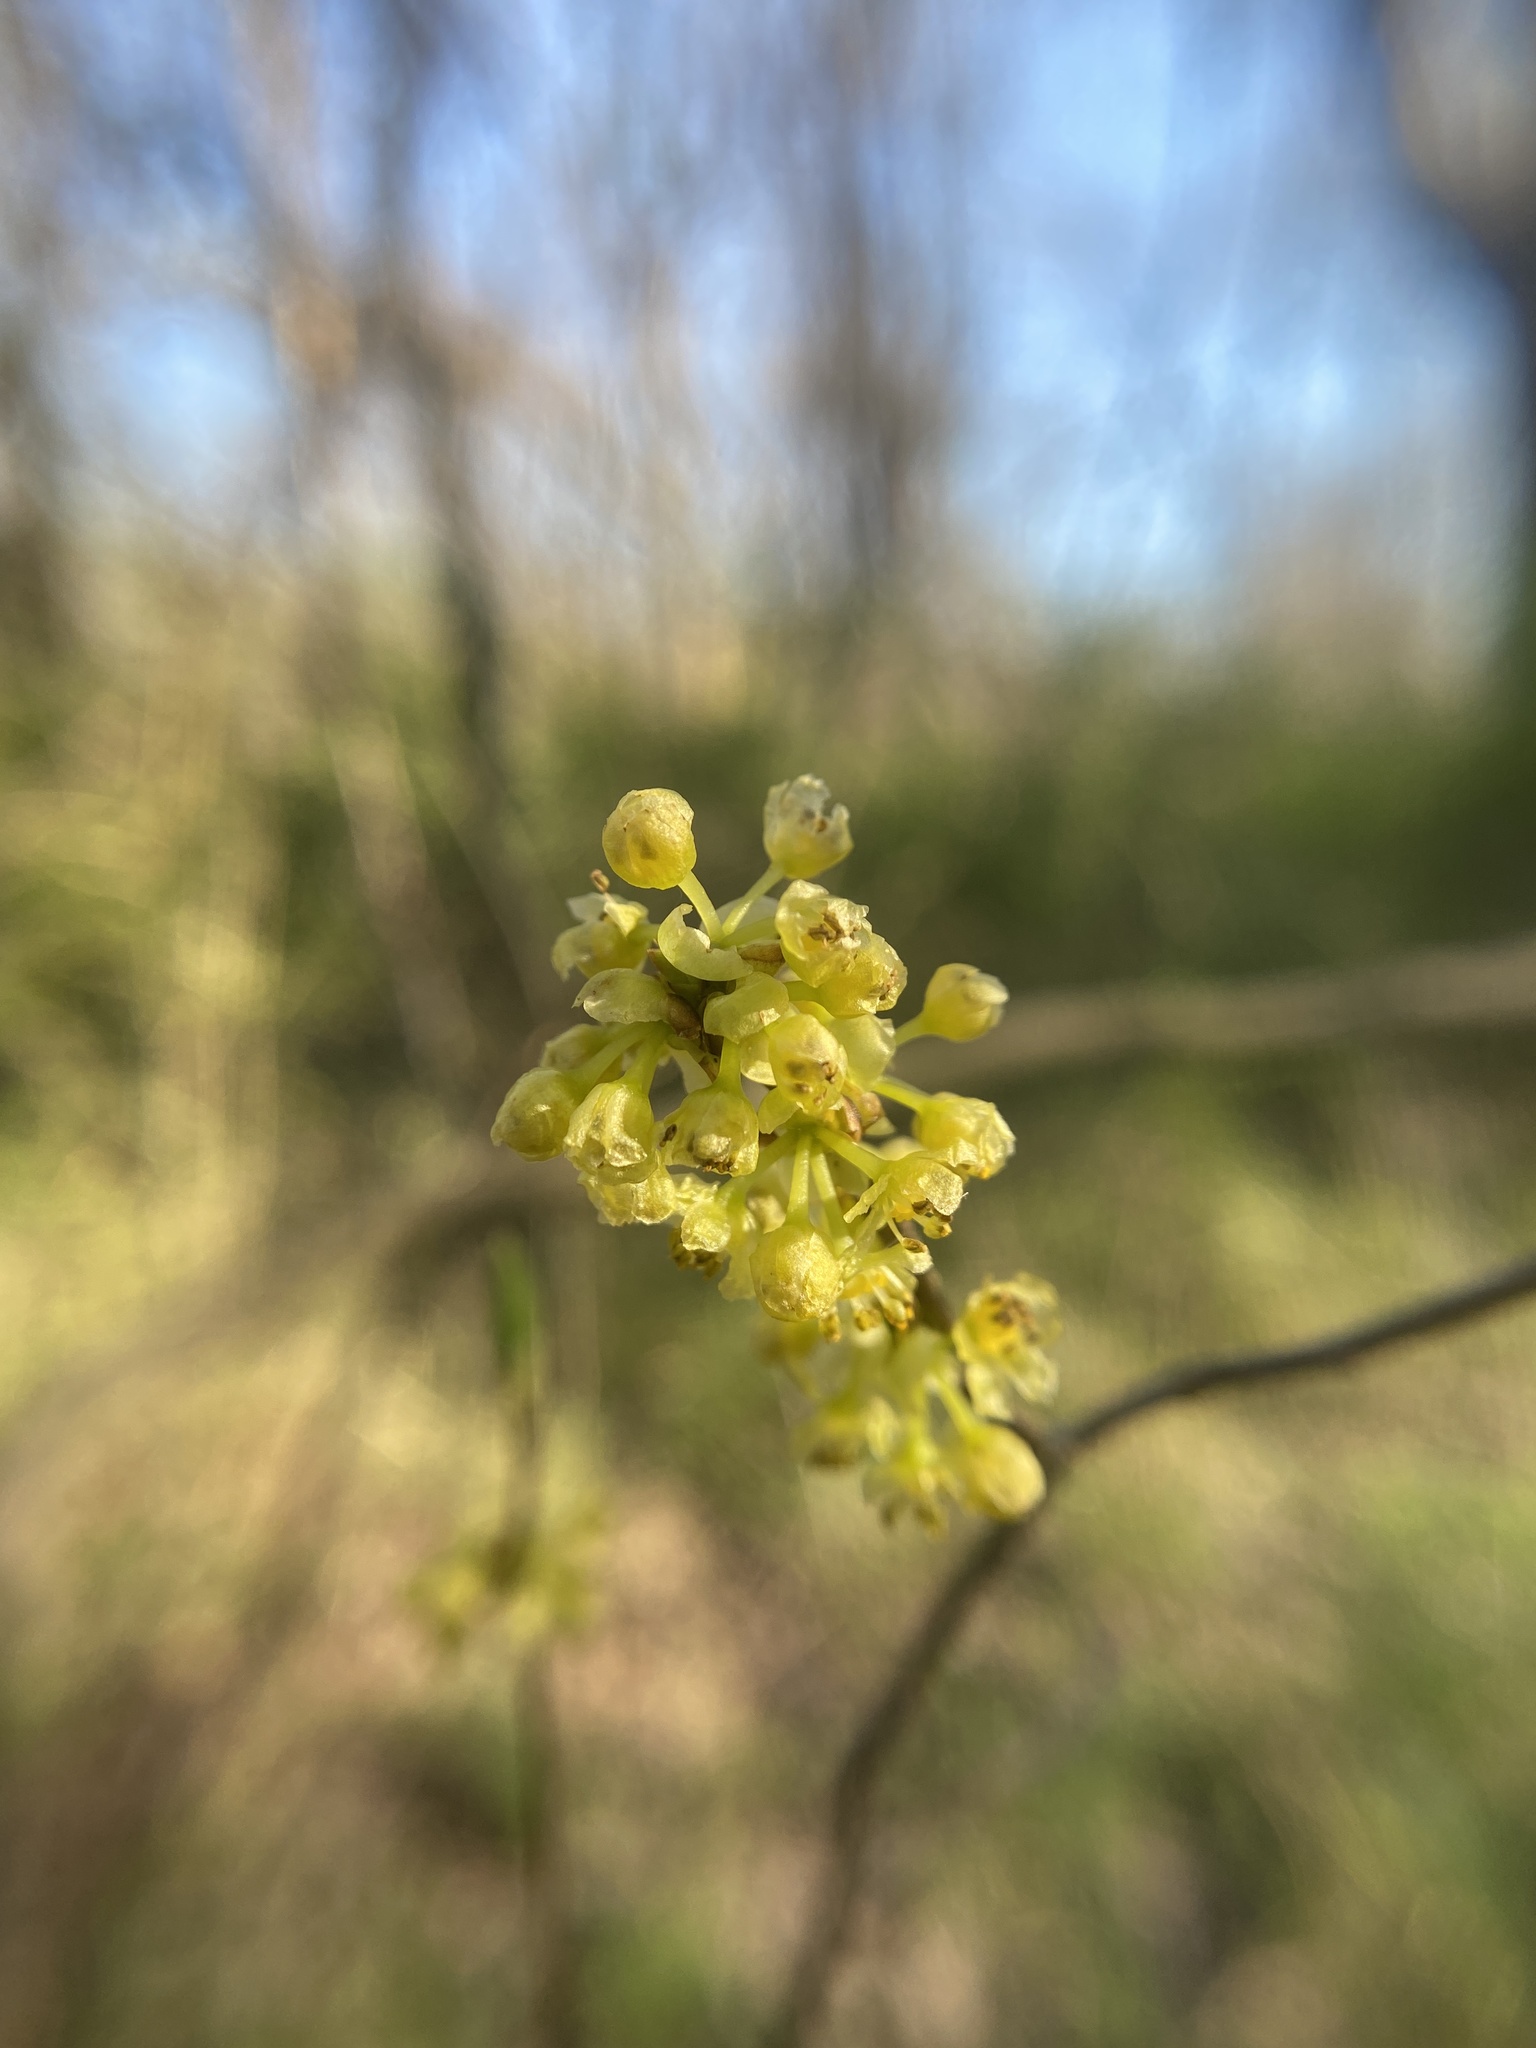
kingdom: Plantae
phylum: Tracheophyta
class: Magnoliopsida
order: Laurales
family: Lauraceae
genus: Lindera
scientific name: Lindera benzoin
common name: Spicebush
